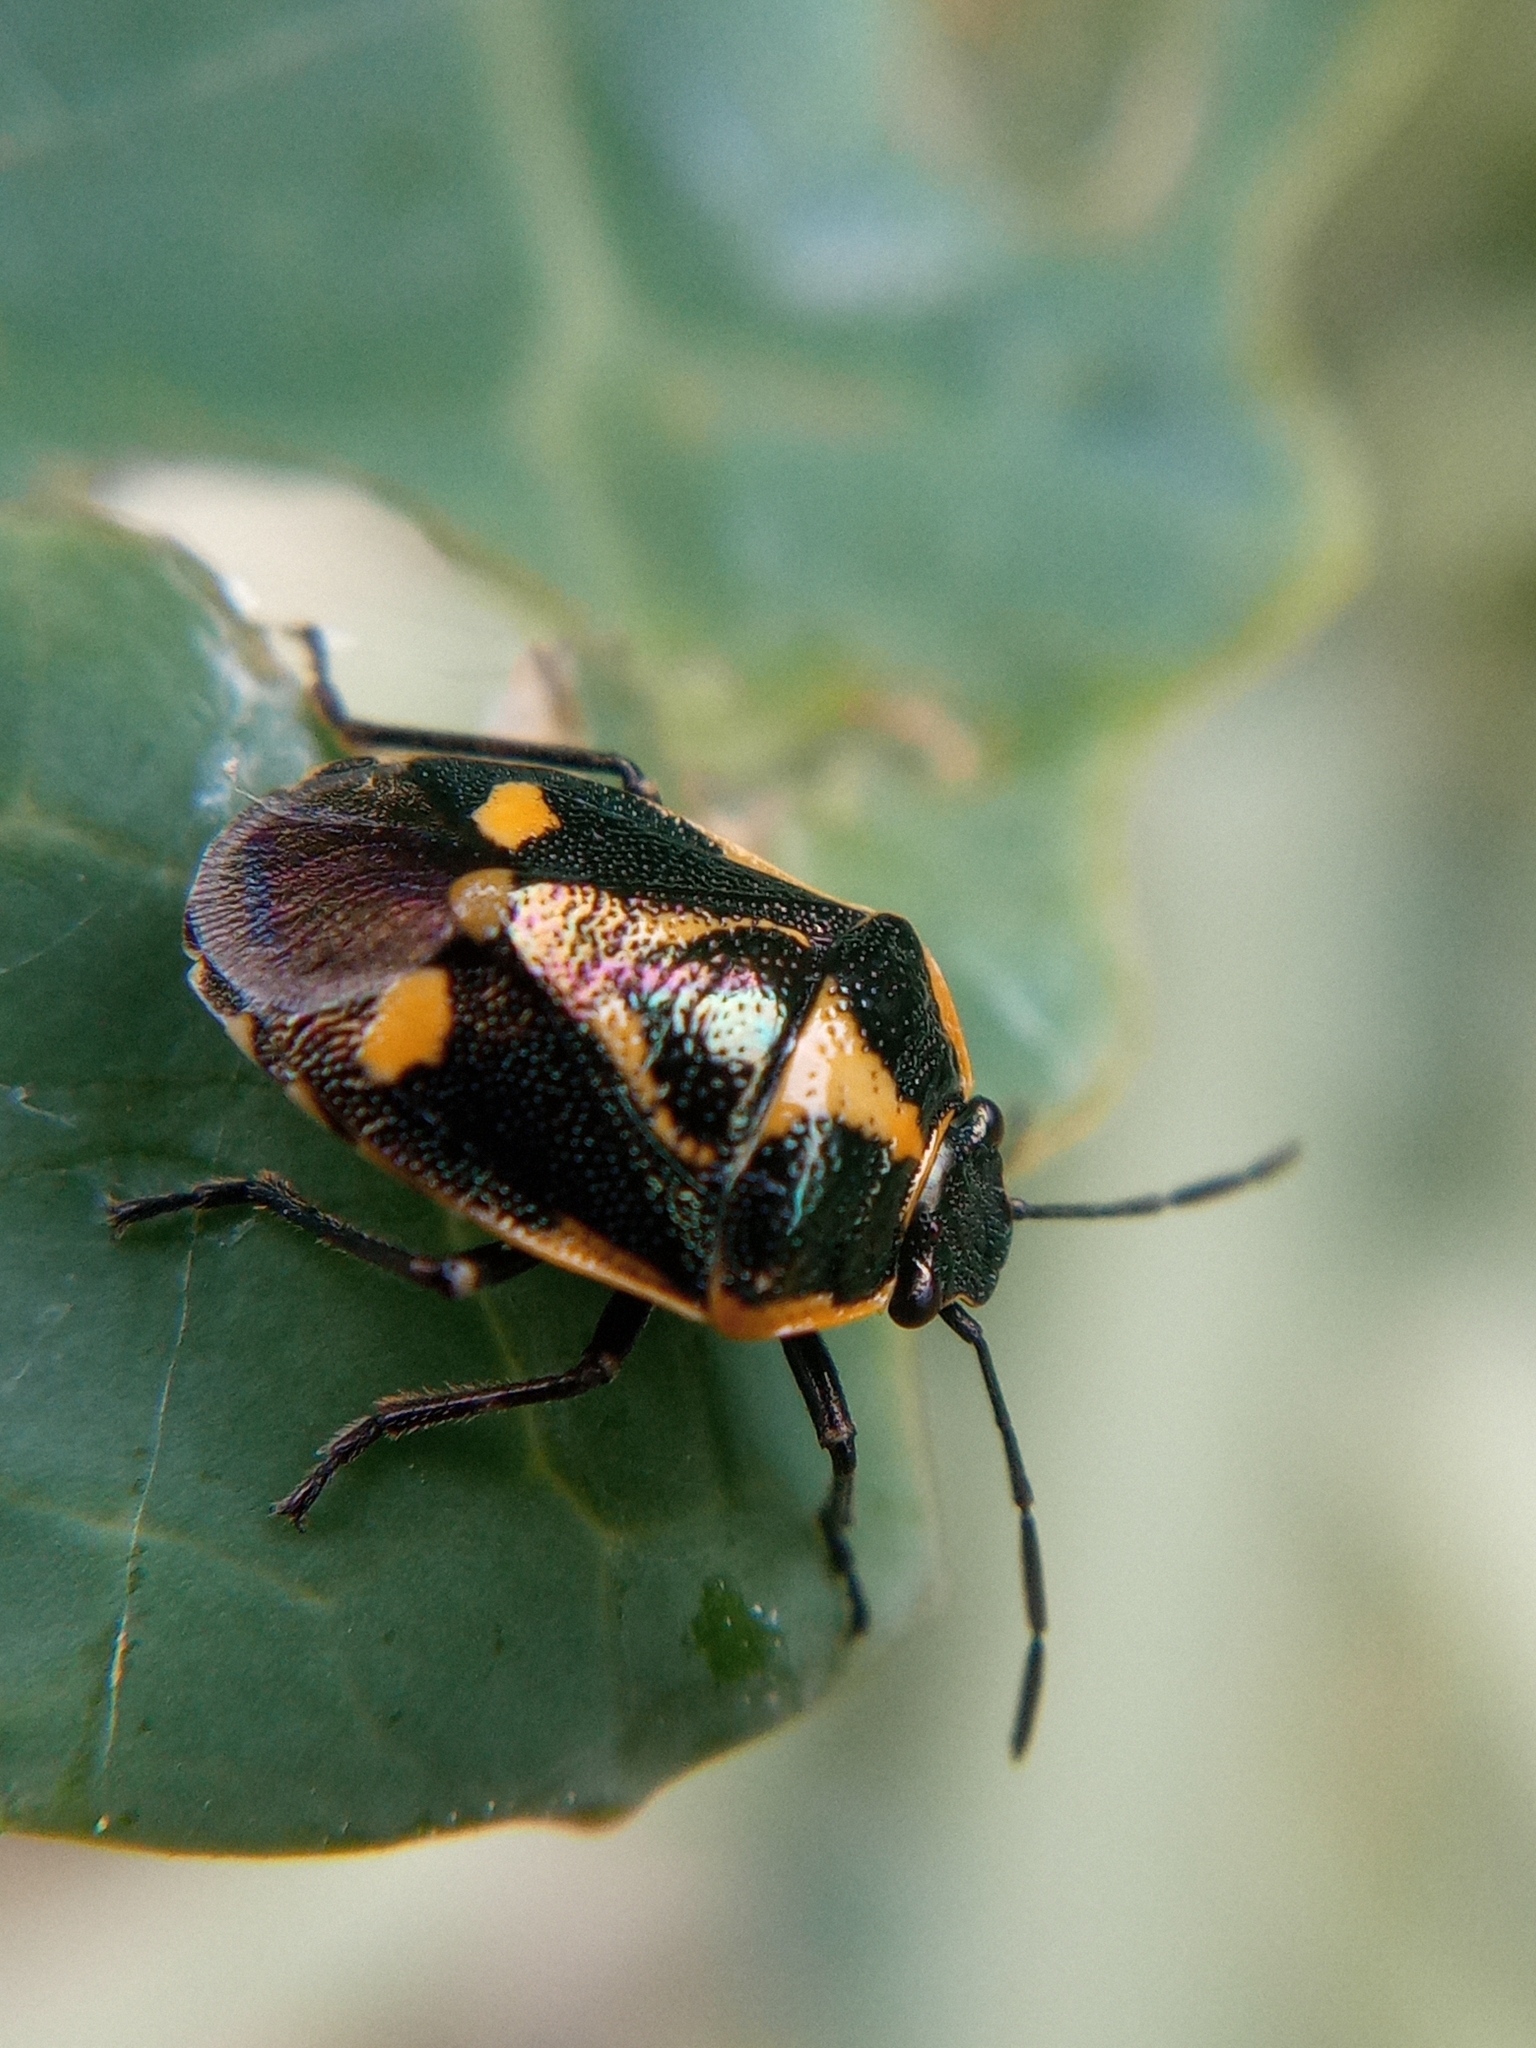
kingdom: Animalia
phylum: Arthropoda
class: Insecta
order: Hemiptera
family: Pentatomidae
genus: Eurydema
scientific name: Eurydema oleracea
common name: Cabbage bug
